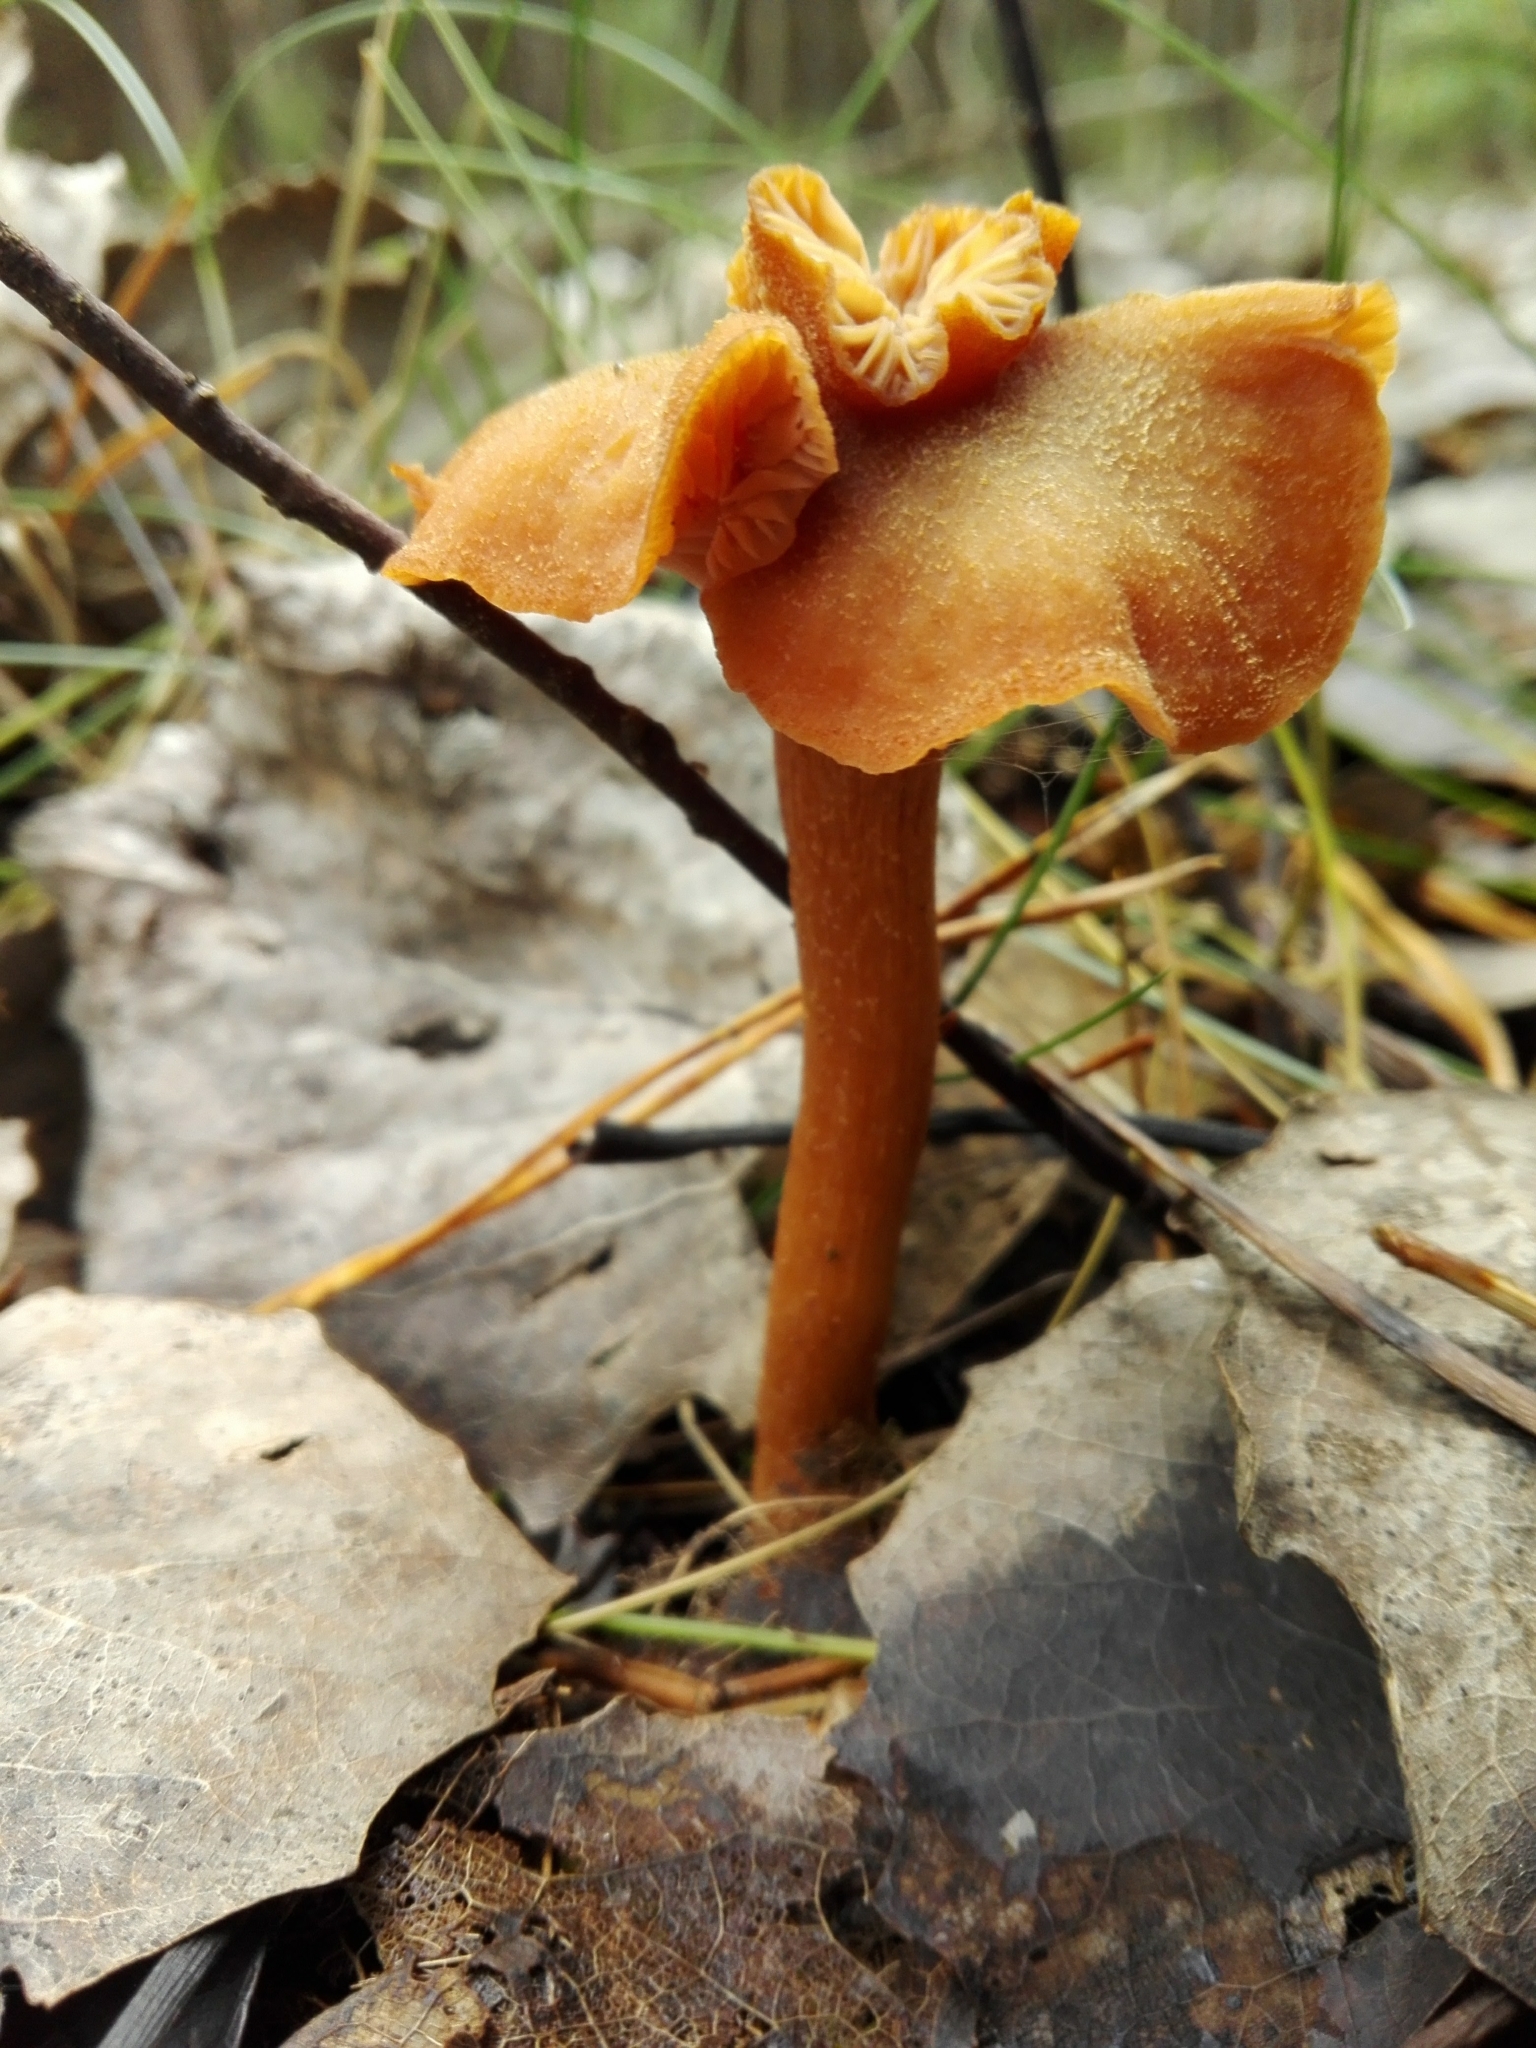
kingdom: Fungi
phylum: Basidiomycota
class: Agaricomycetes
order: Agaricales
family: Hydnangiaceae
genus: Laccaria
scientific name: Laccaria proxima
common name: Scurfy deceiver
